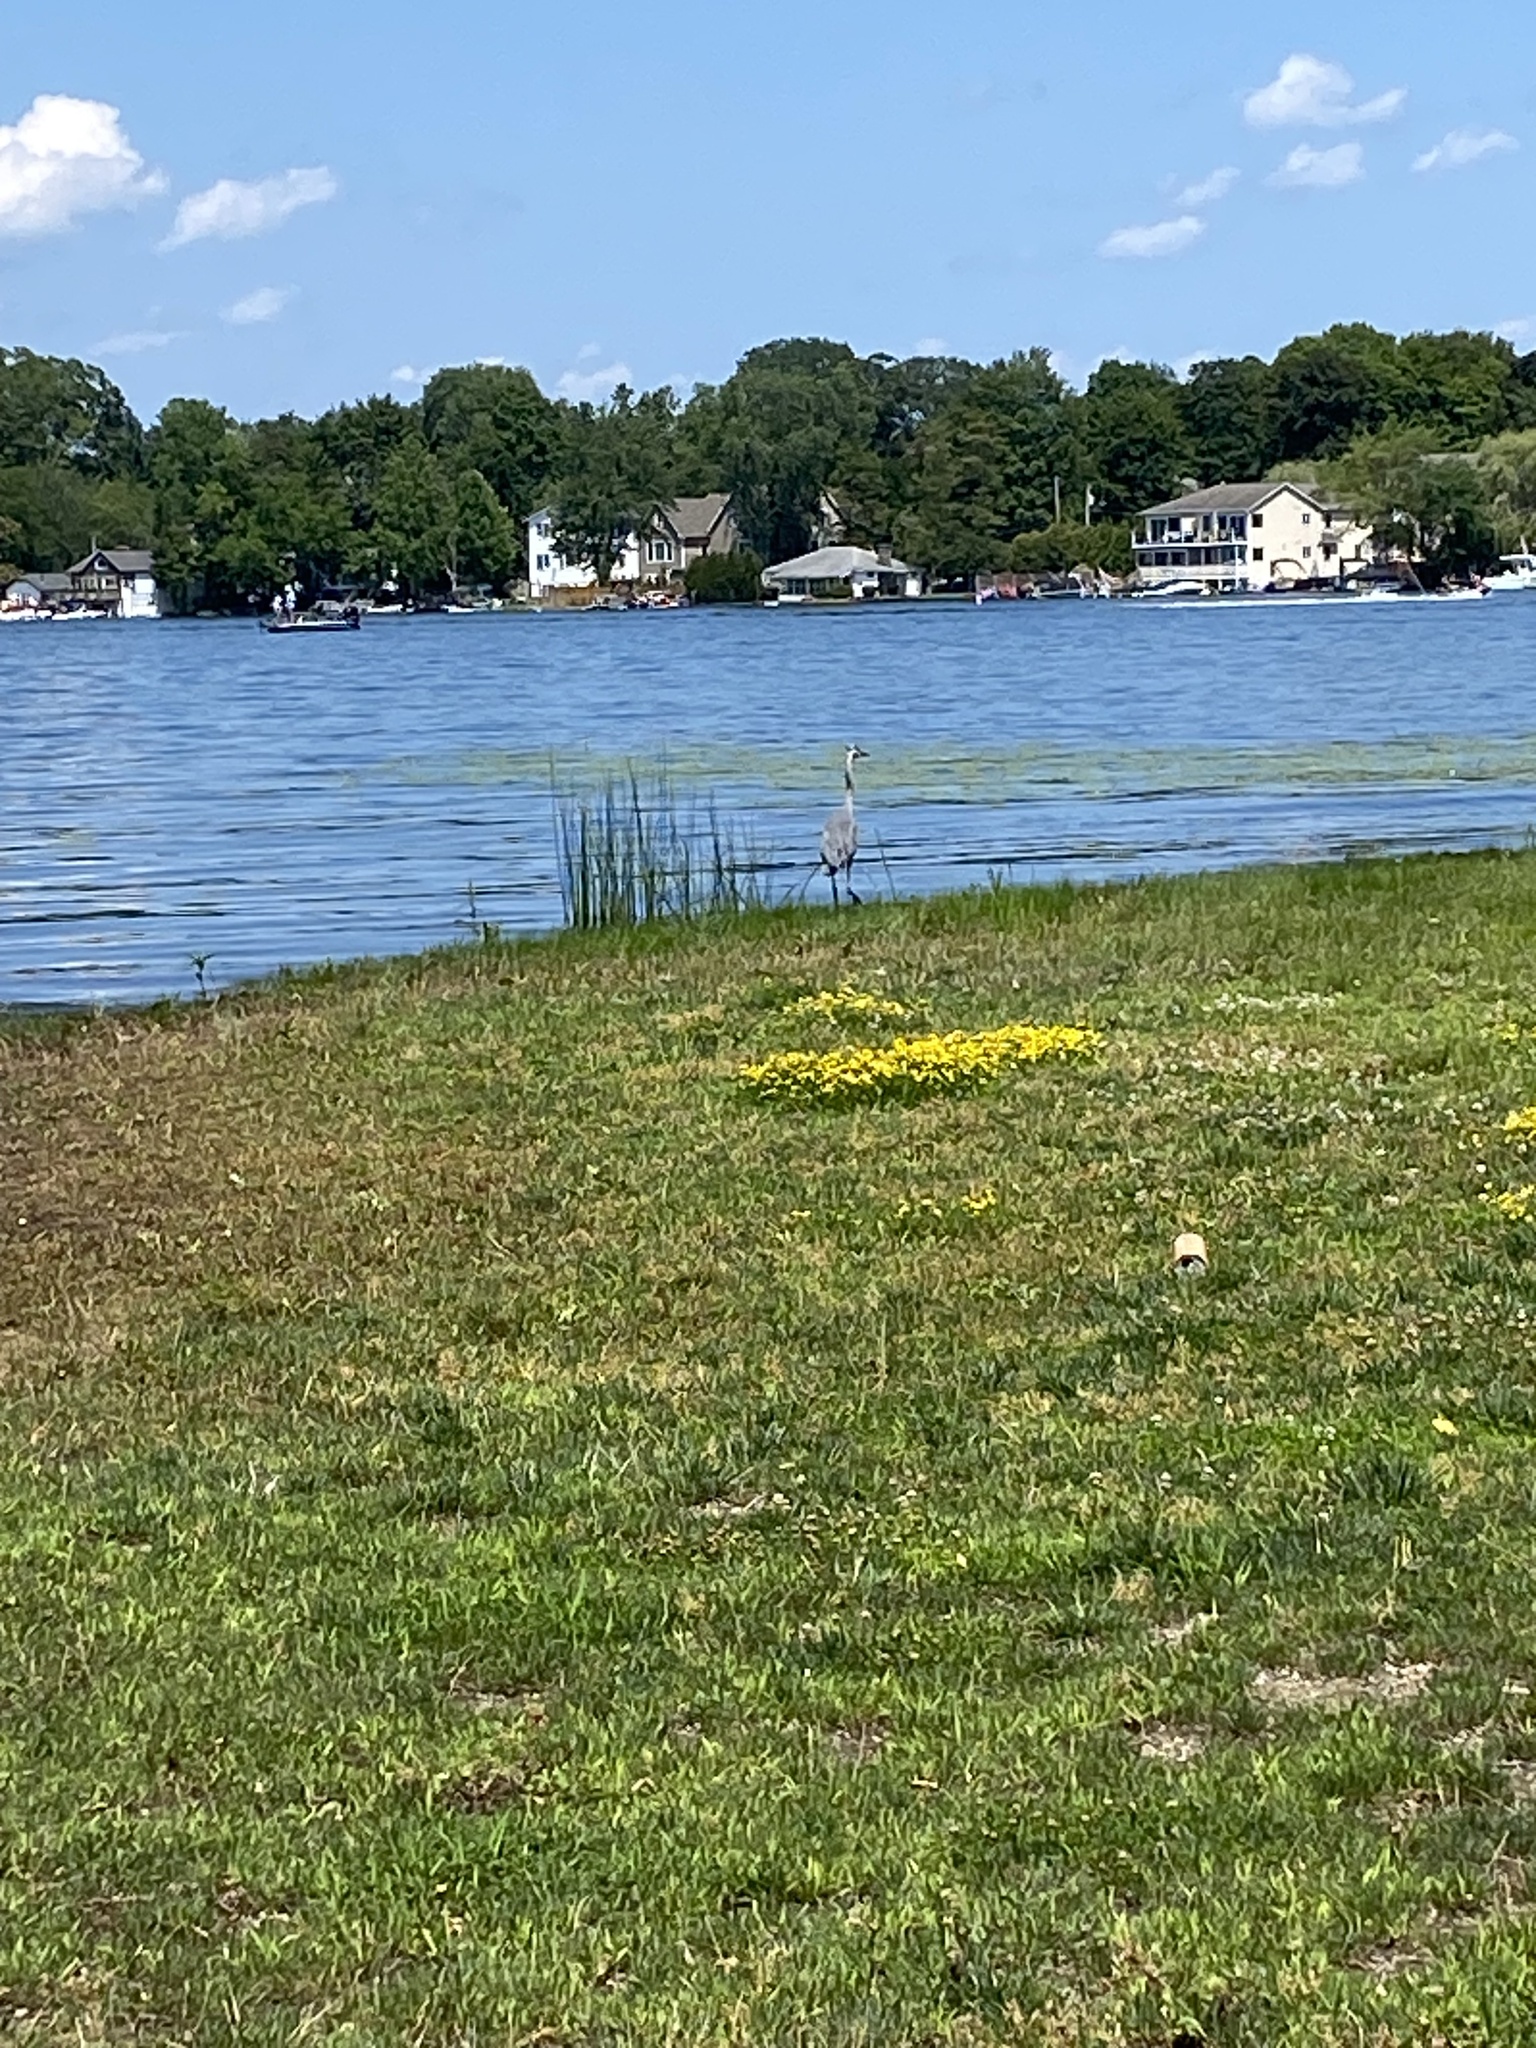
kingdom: Animalia
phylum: Chordata
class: Aves
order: Pelecaniformes
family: Ardeidae
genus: Ardea
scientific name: Ardea herodias
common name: Great blue heron
